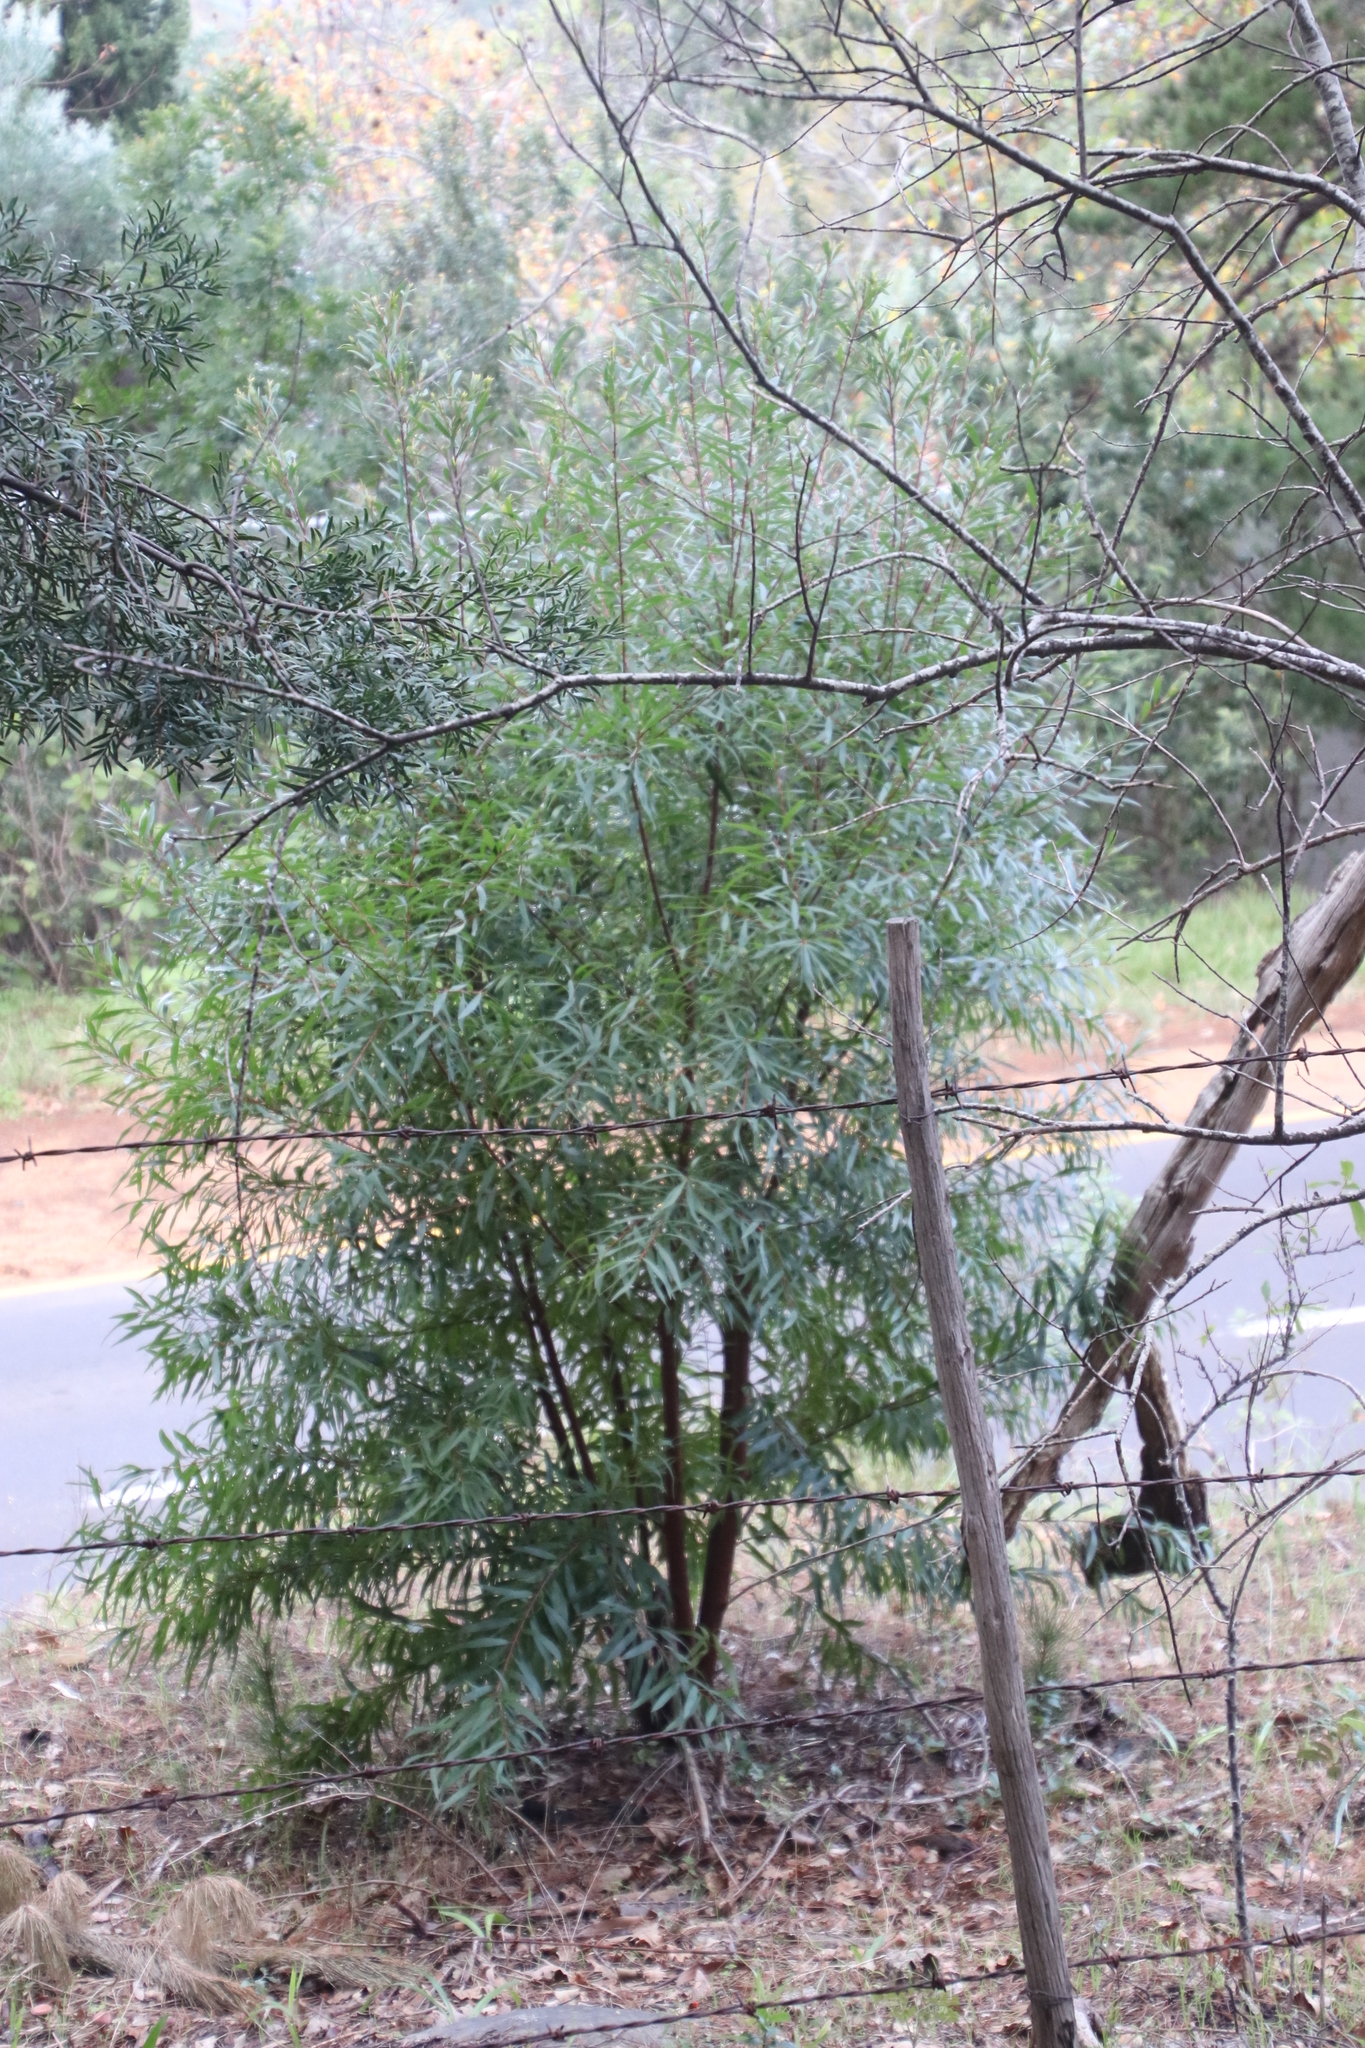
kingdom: Plantae
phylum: Tracheophyta
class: Magnoliopsida
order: Fabales
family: Fabaceae
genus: Acacia
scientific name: Acacia melanoxylon
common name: Blackwood
